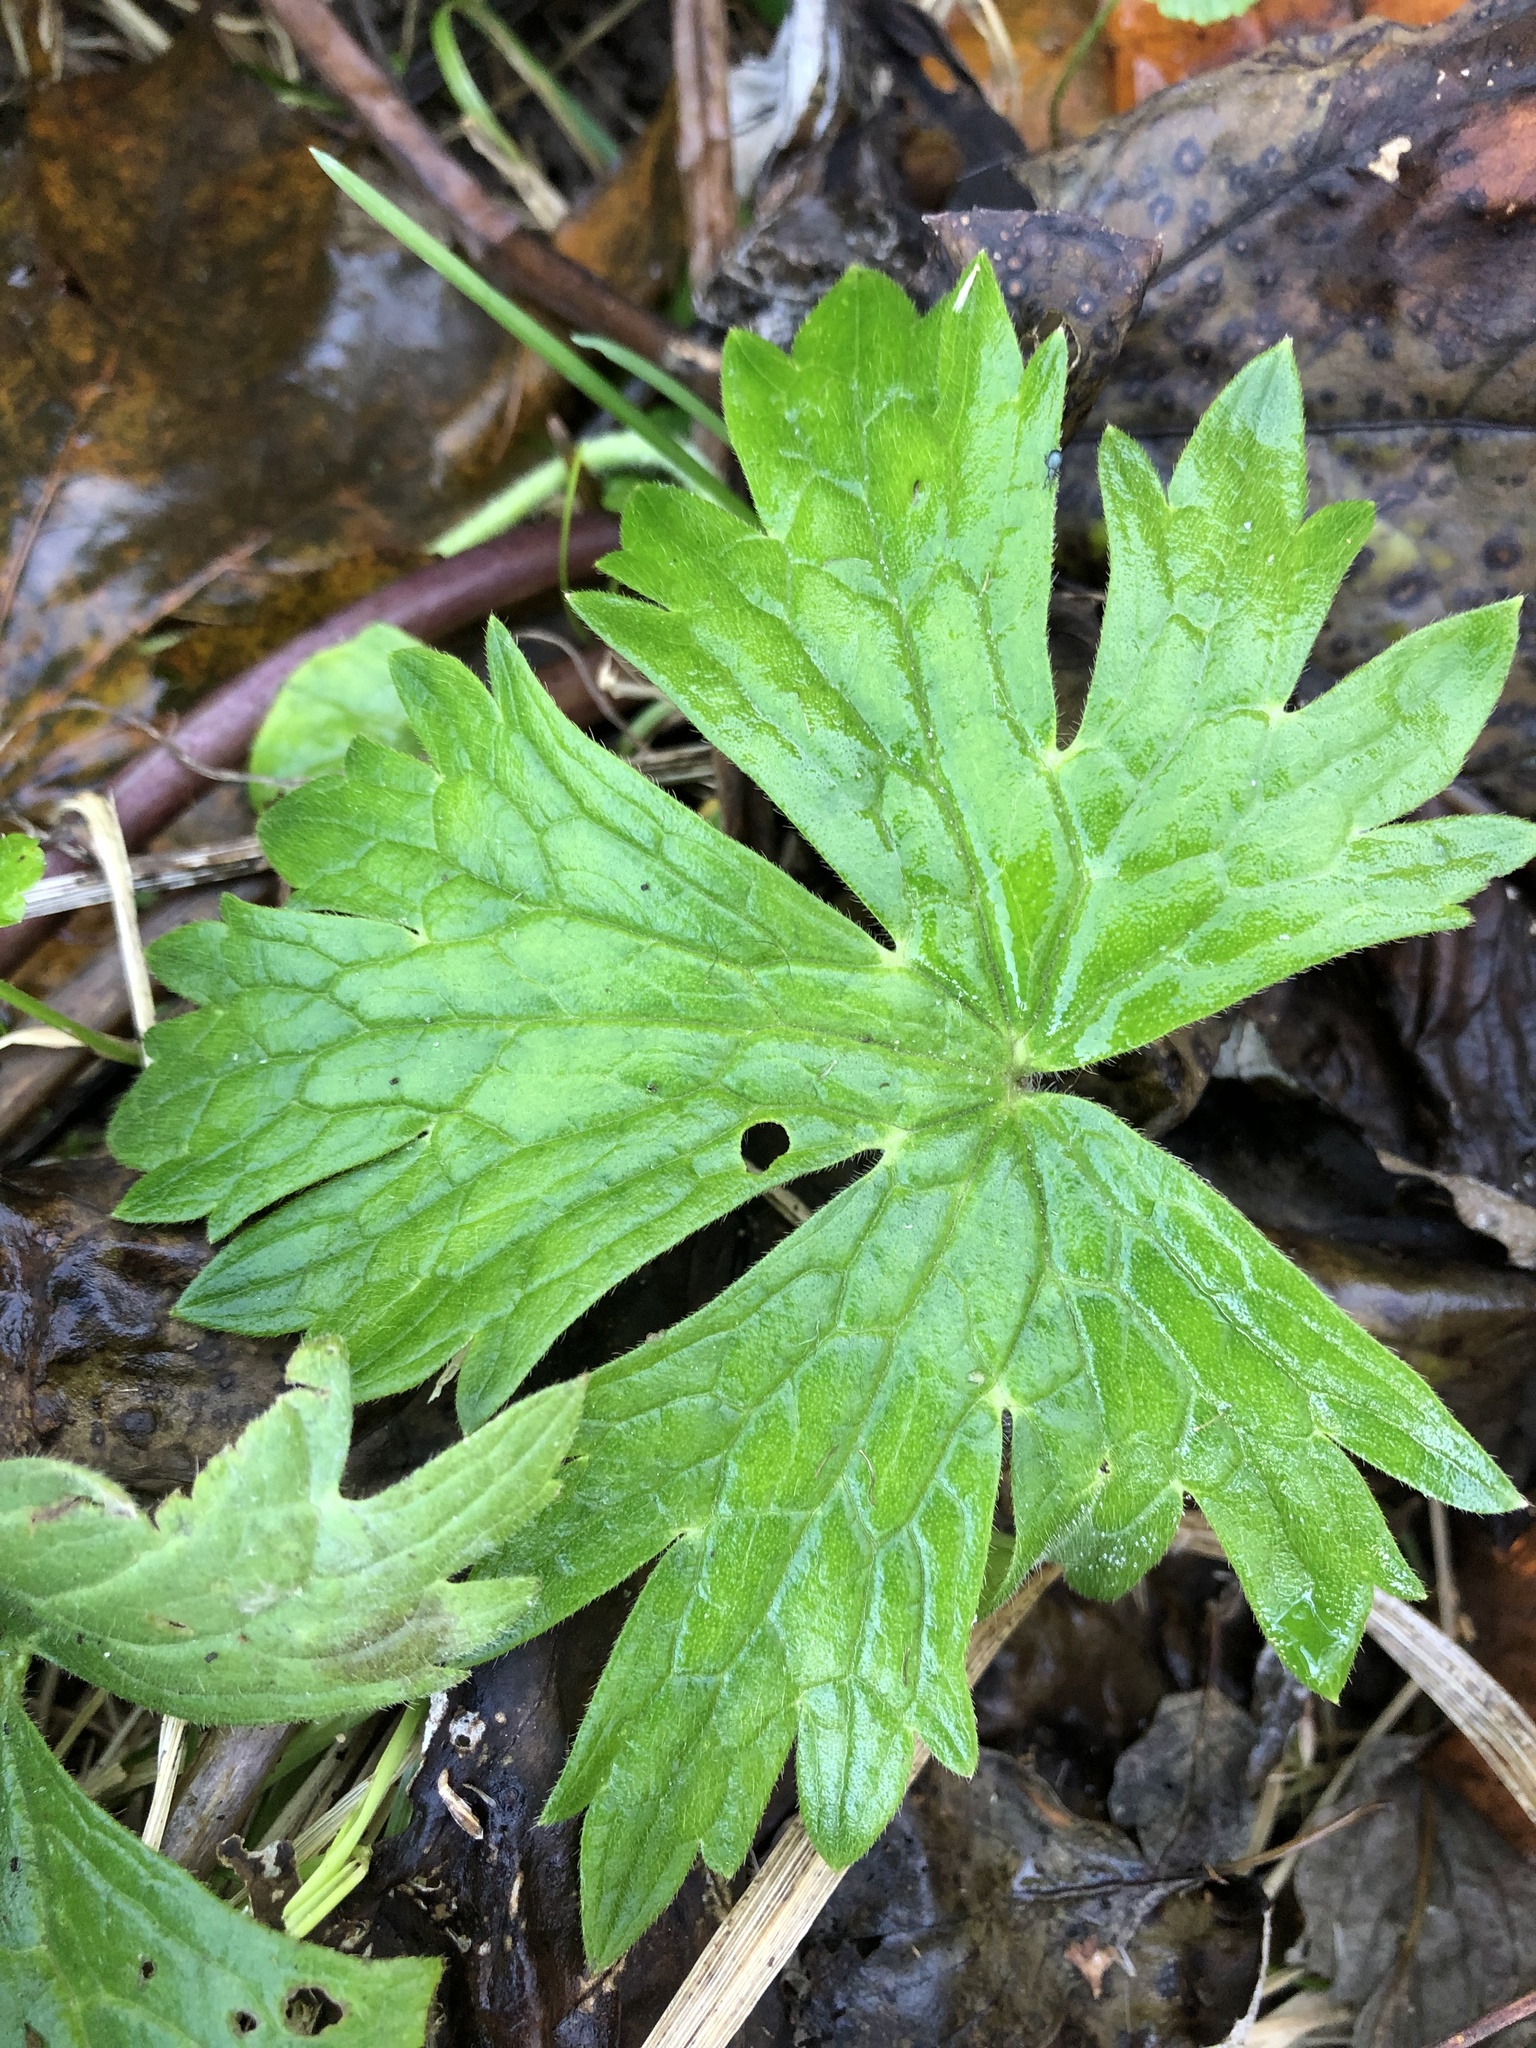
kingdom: Plantae
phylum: Tracheophyta
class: Magnoliopsida
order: Ranunculales
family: Ranunculaceae
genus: Anemonastrum
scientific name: Anemonastrum canadense
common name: Canada anemone
